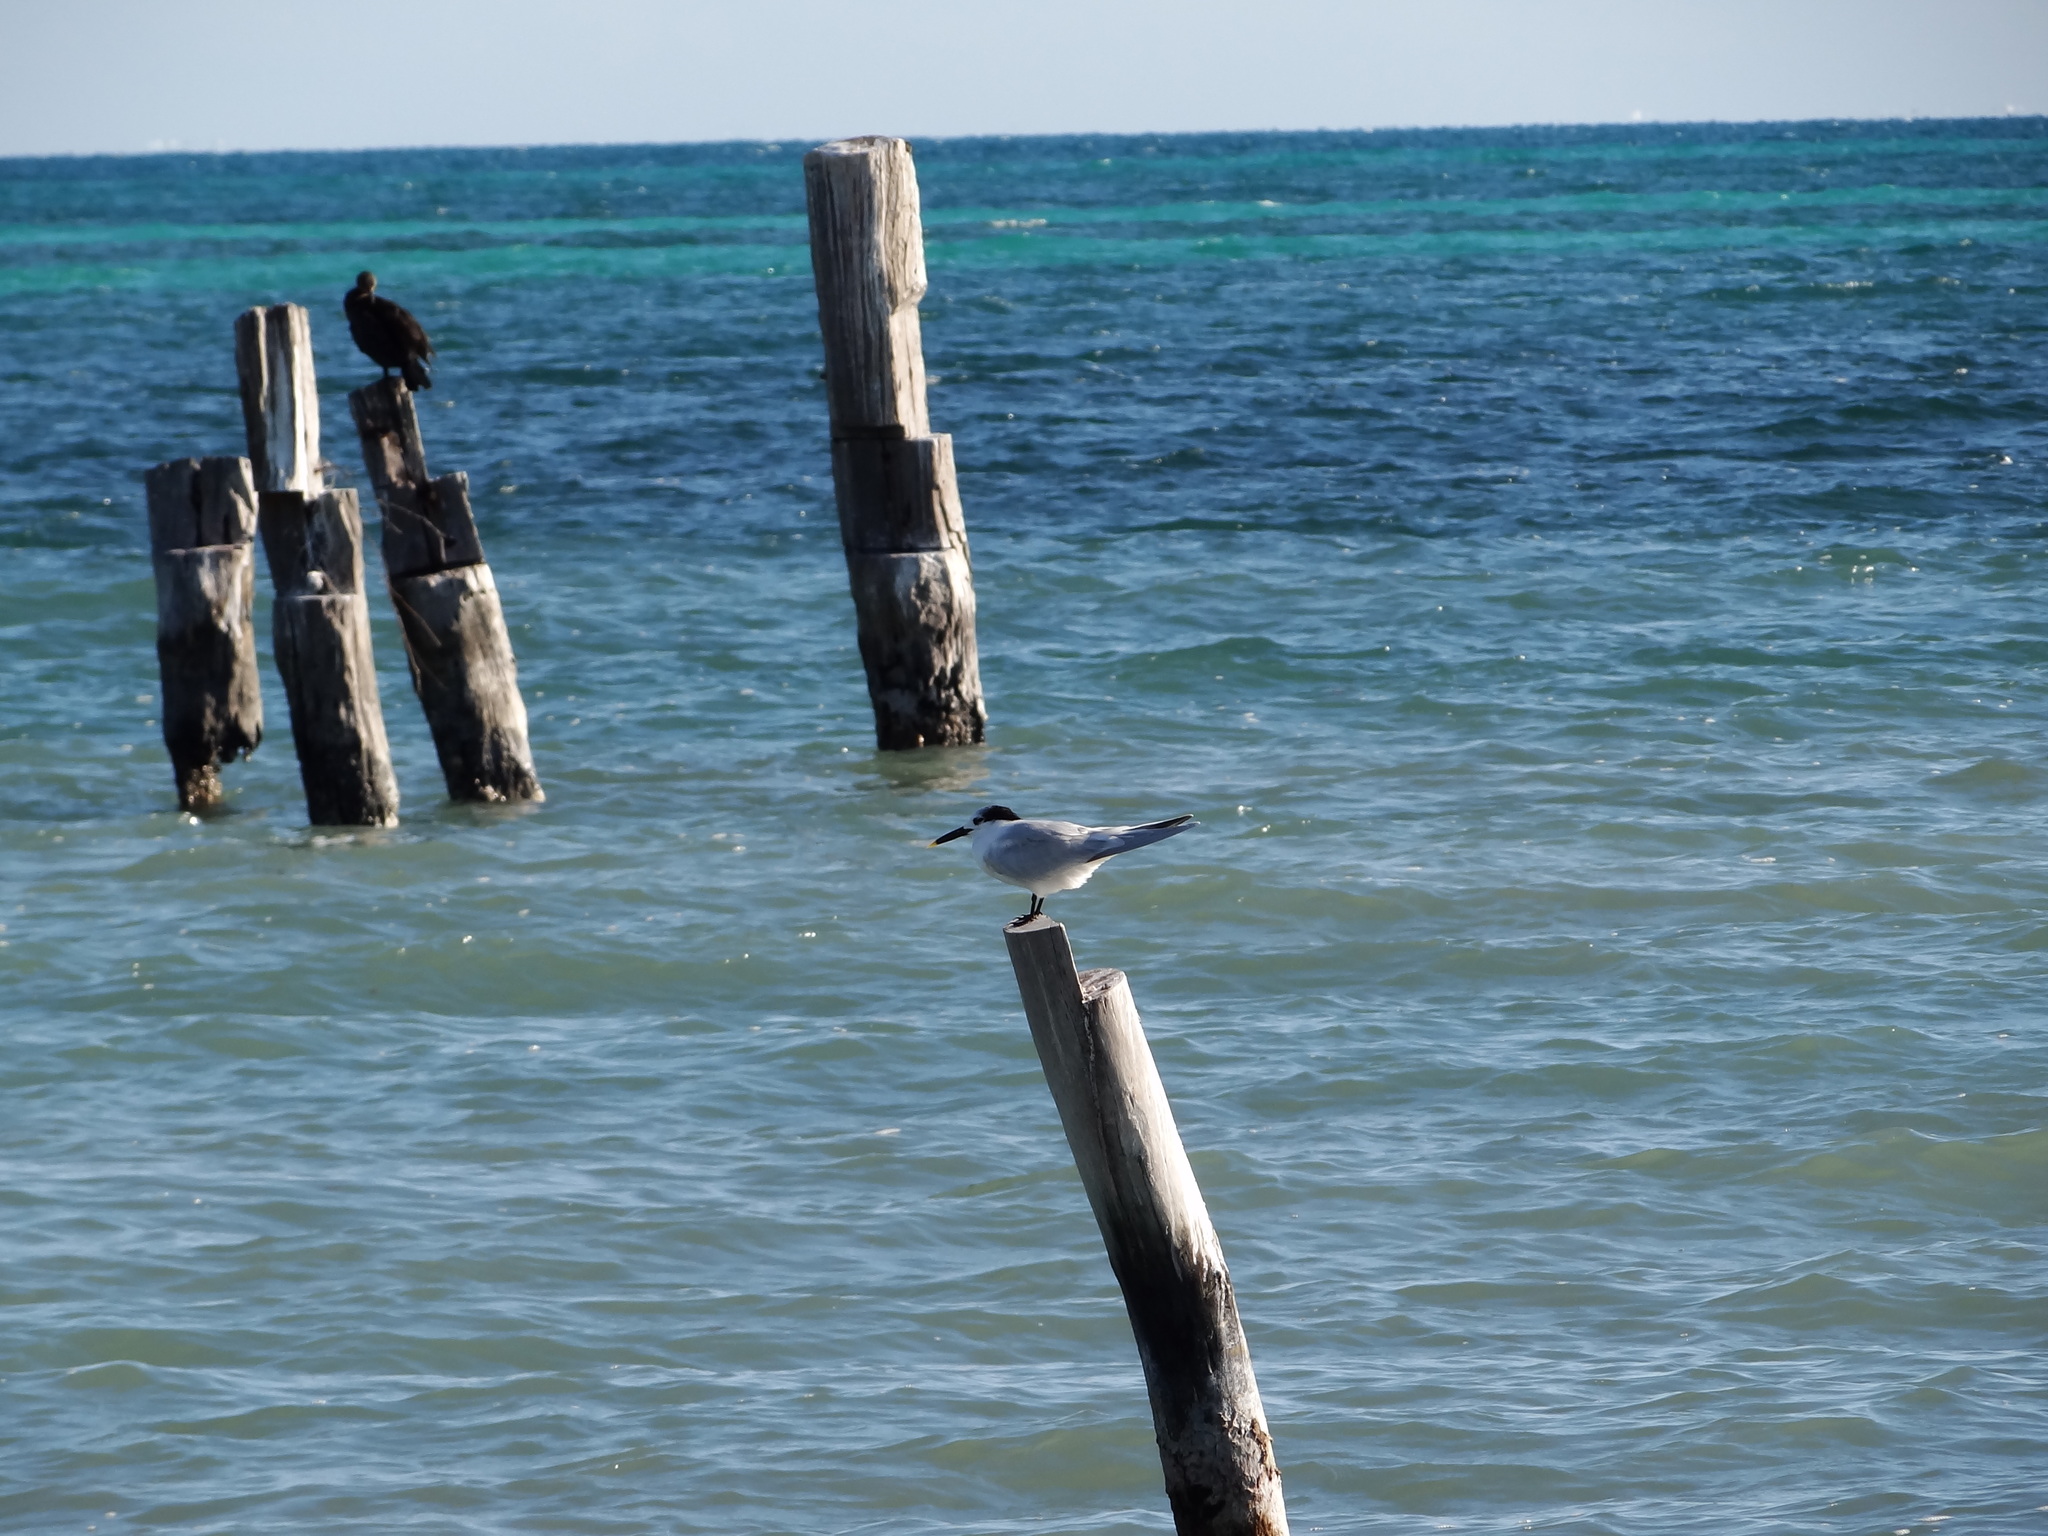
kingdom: Animalia
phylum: Chordata
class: Aves
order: Charadriiformes
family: Laridae
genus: Thalasseus
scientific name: Thalasseus sandvicensis
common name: Sandwich tern
